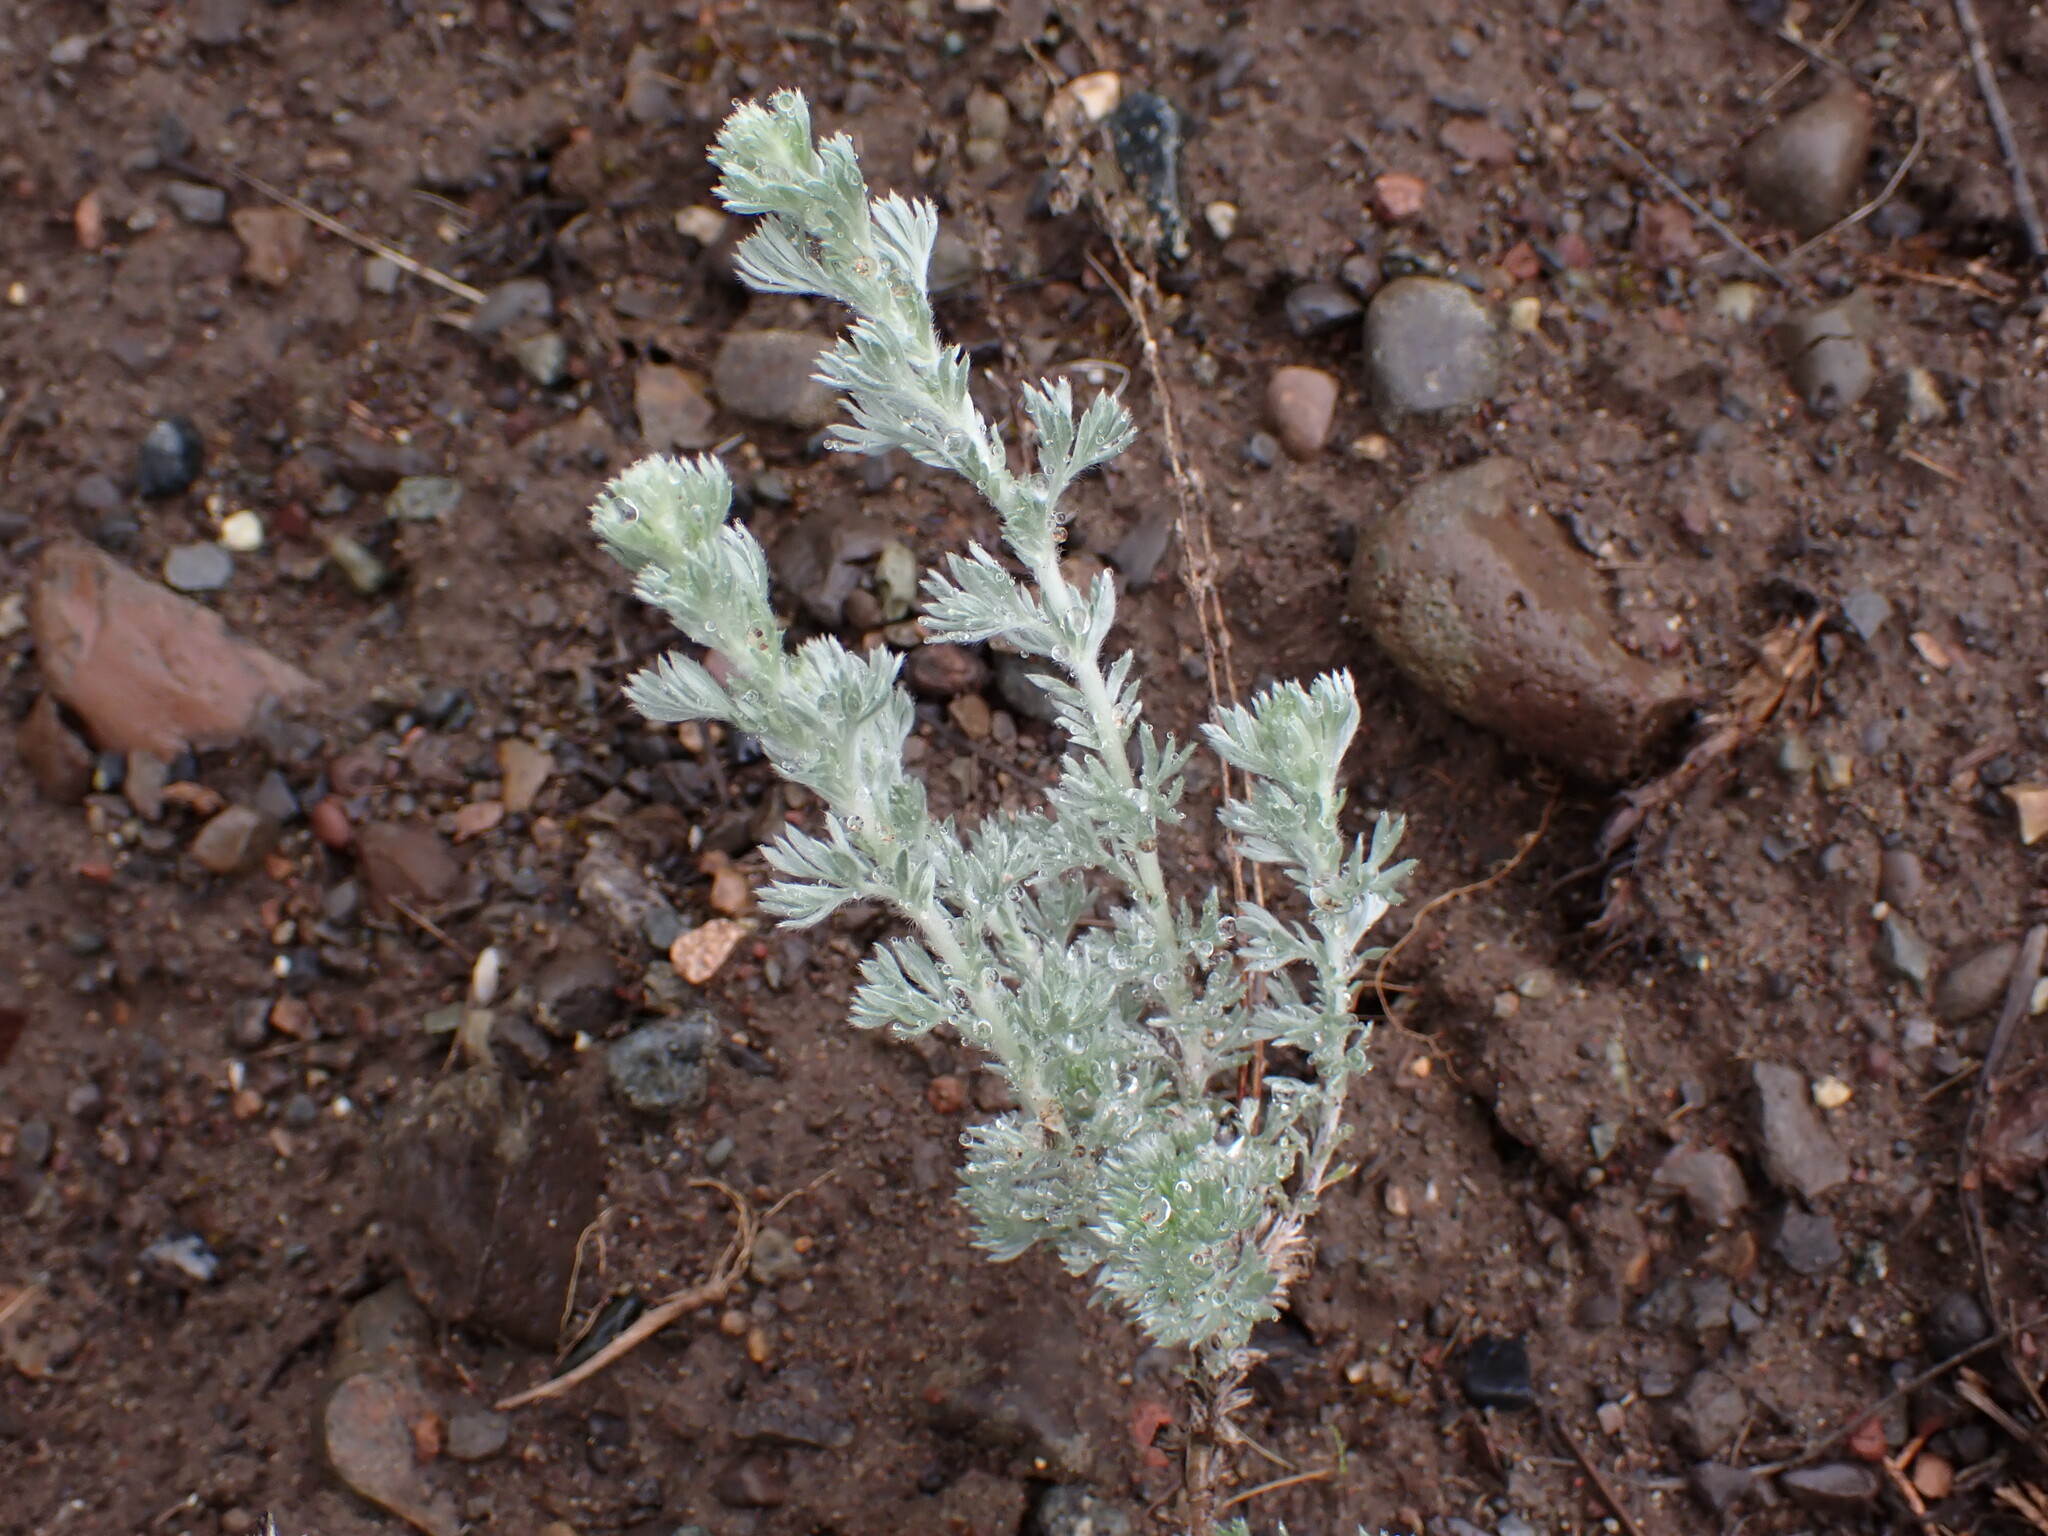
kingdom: Plantae
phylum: Tracheophyta
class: Magnoliopsida
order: Asterales
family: Asteraceae
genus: Artemisia
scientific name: Artemisia frigida
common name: Prairie sagewort
